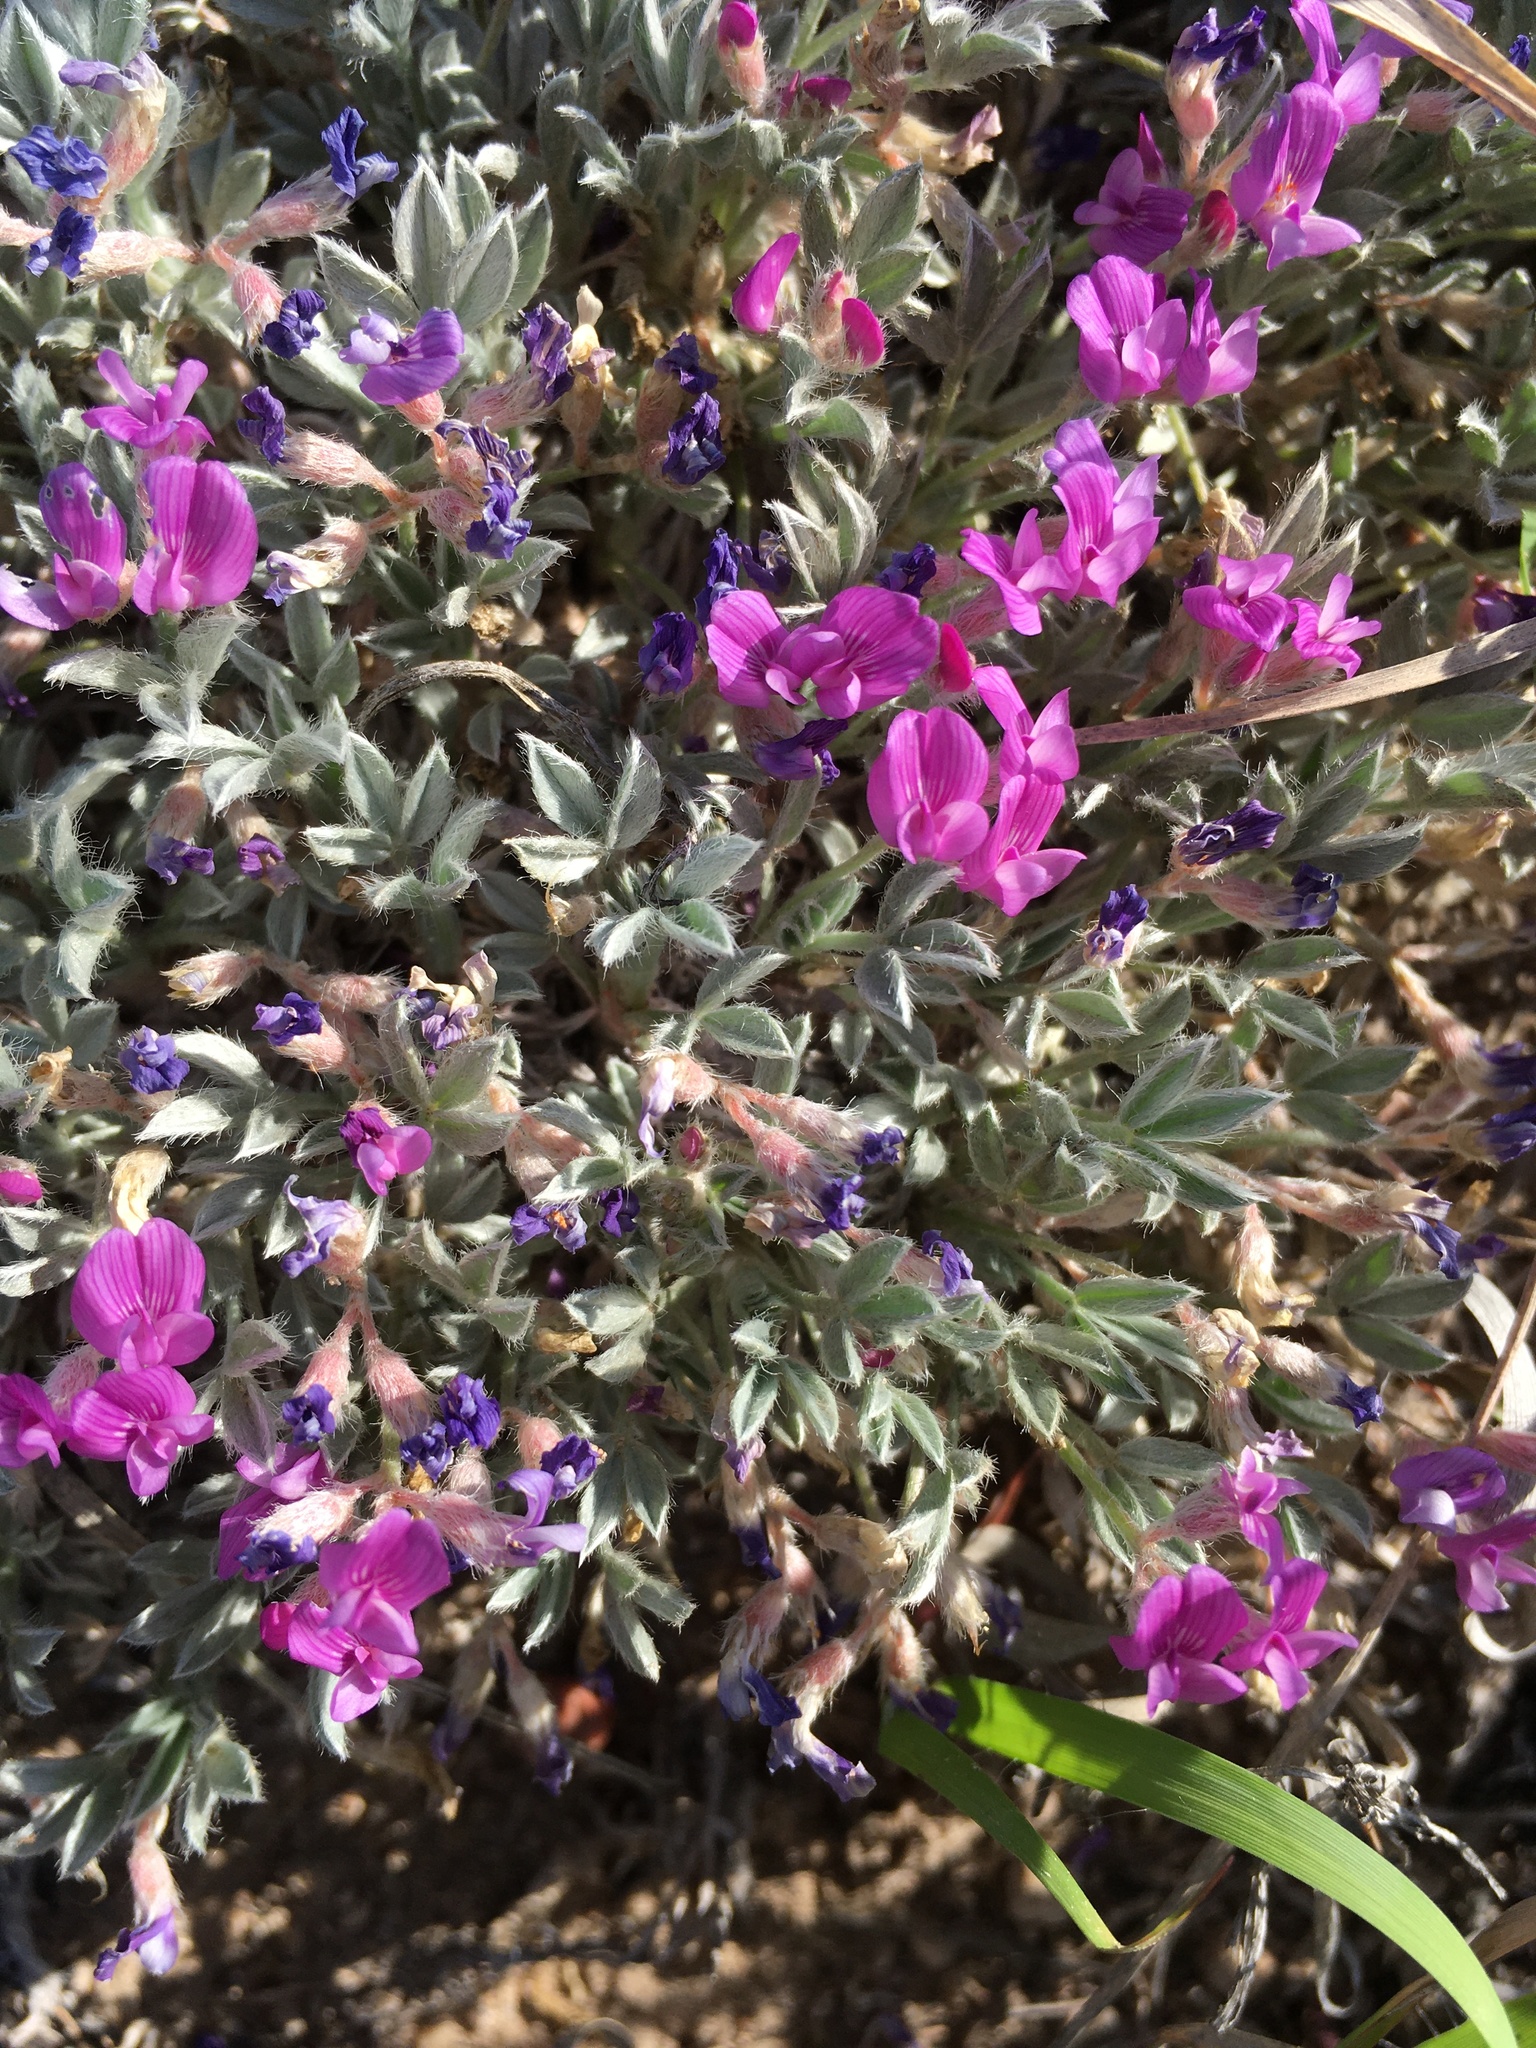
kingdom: Plantae
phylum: Tracheophyta
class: Magnoliopsida
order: Fabales
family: Fabaceae
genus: Astragalus
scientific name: Astragalus sericoleucus
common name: Silky orophaca
